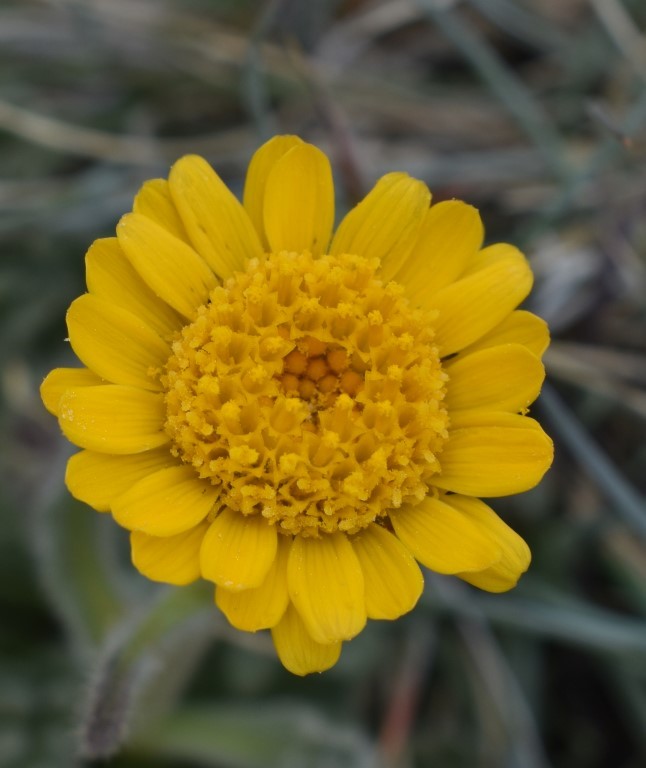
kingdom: Plantae
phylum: Tracheophyta
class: Magnoliopsida
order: Asterales
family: Asteraceae
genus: Hulsea
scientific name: Hulsea nana
